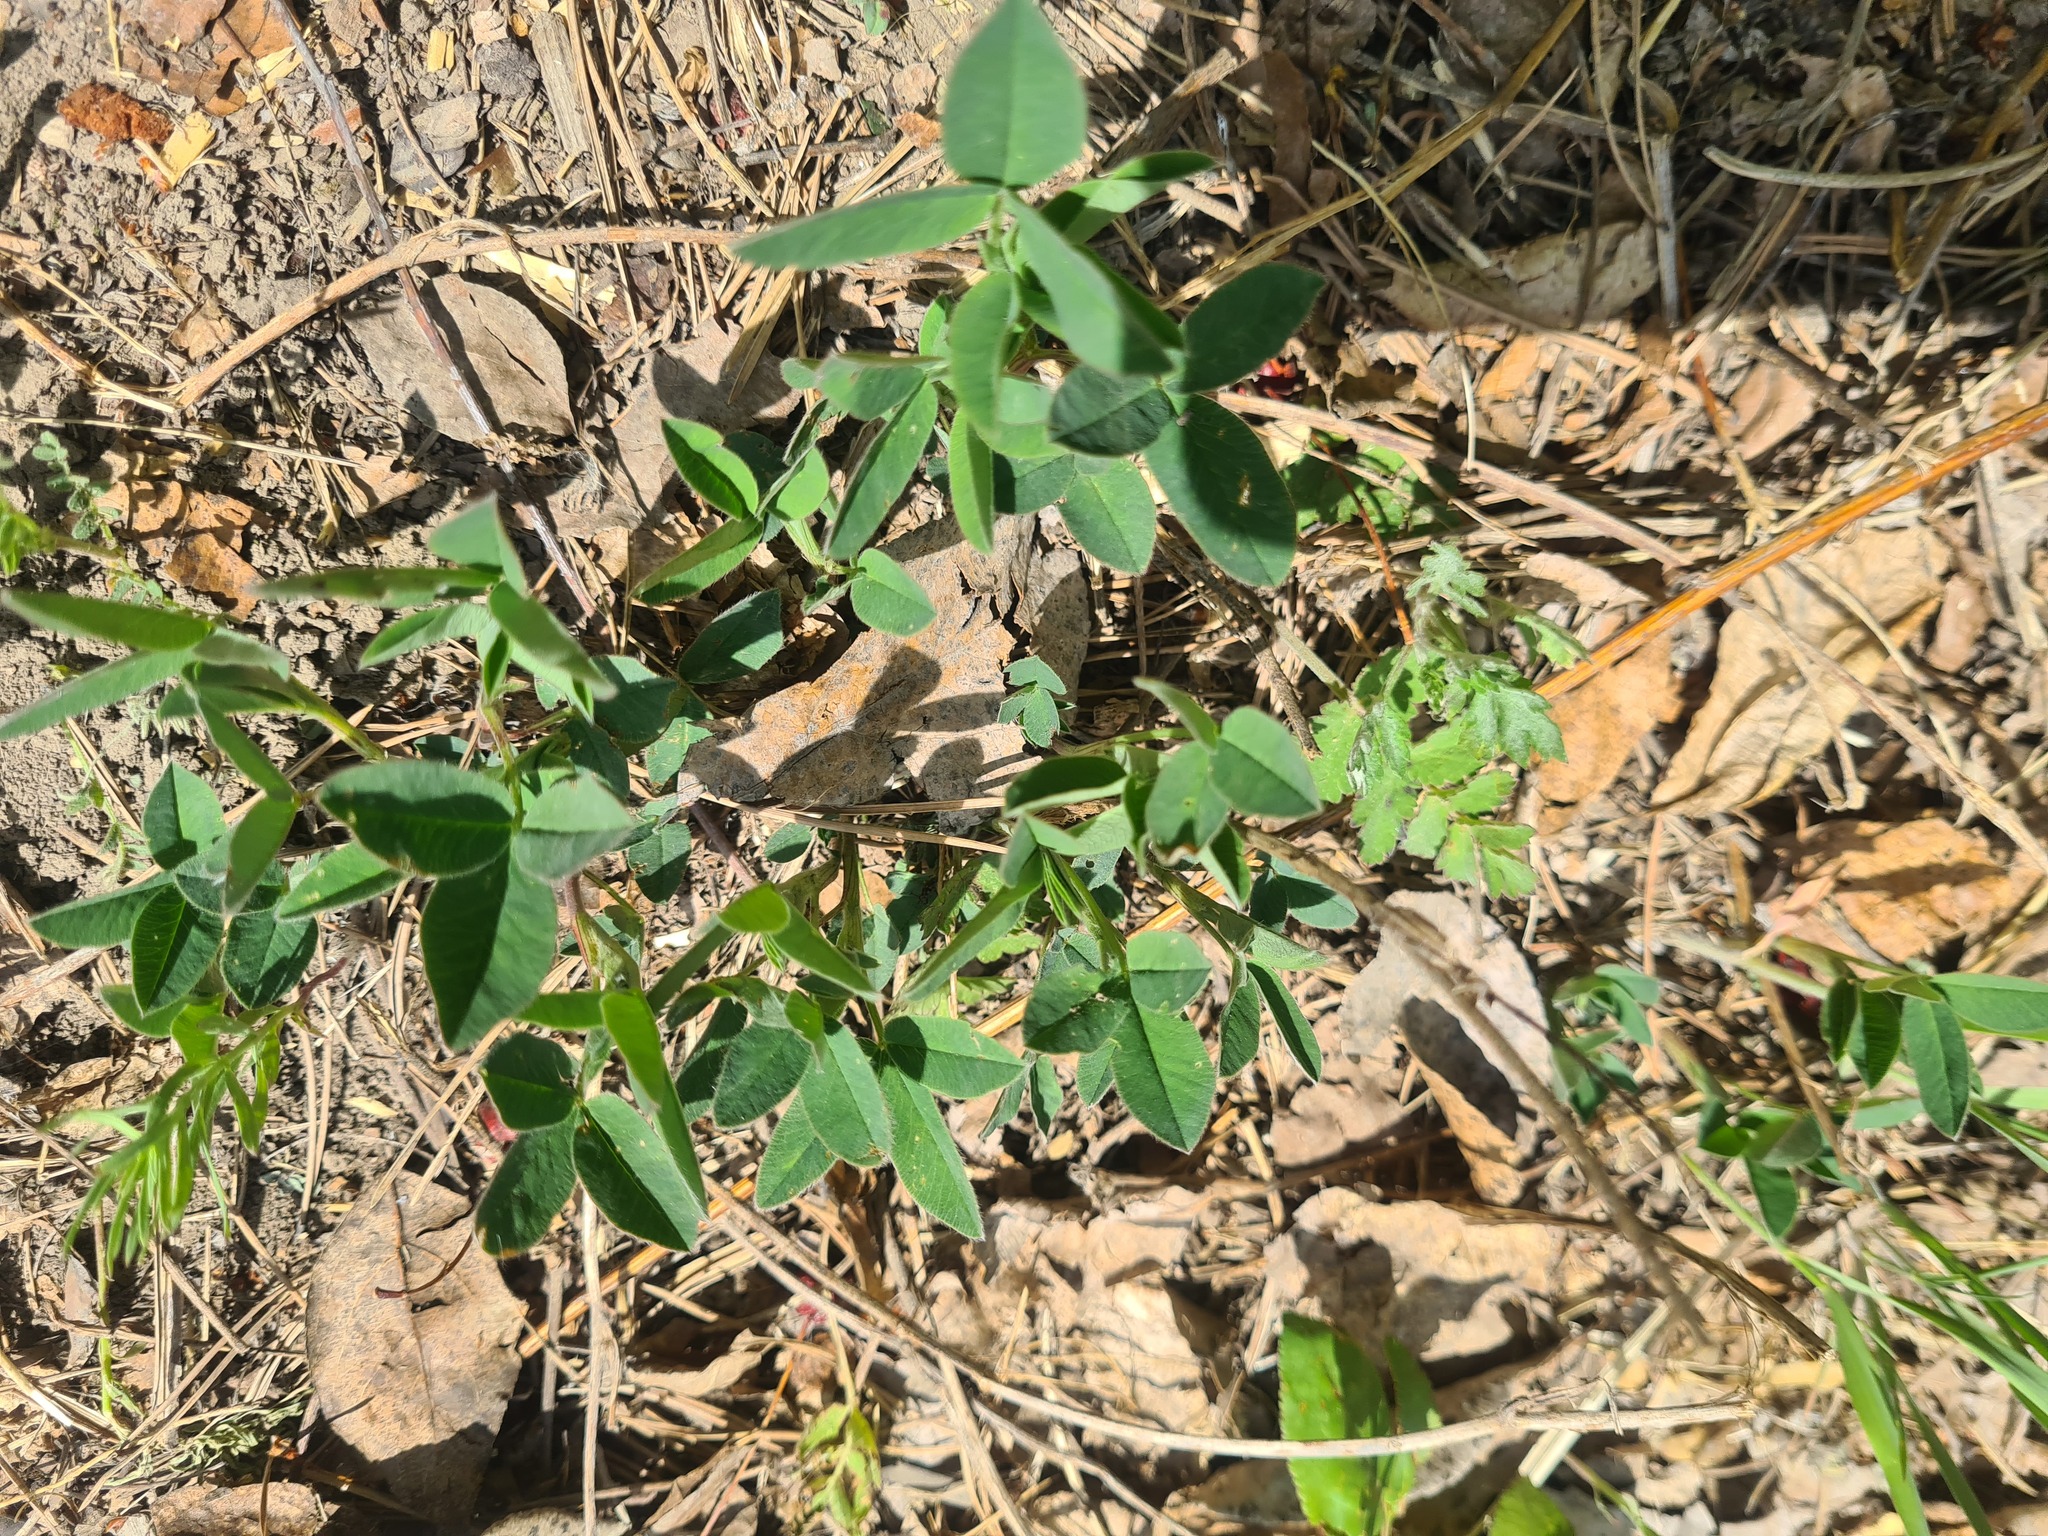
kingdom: Plantae
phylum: Tracheophyta
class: Magnoliopsida
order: Fabales
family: Fabaceae
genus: Trifolium
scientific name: Trifolium medium
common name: Zigzag clover
